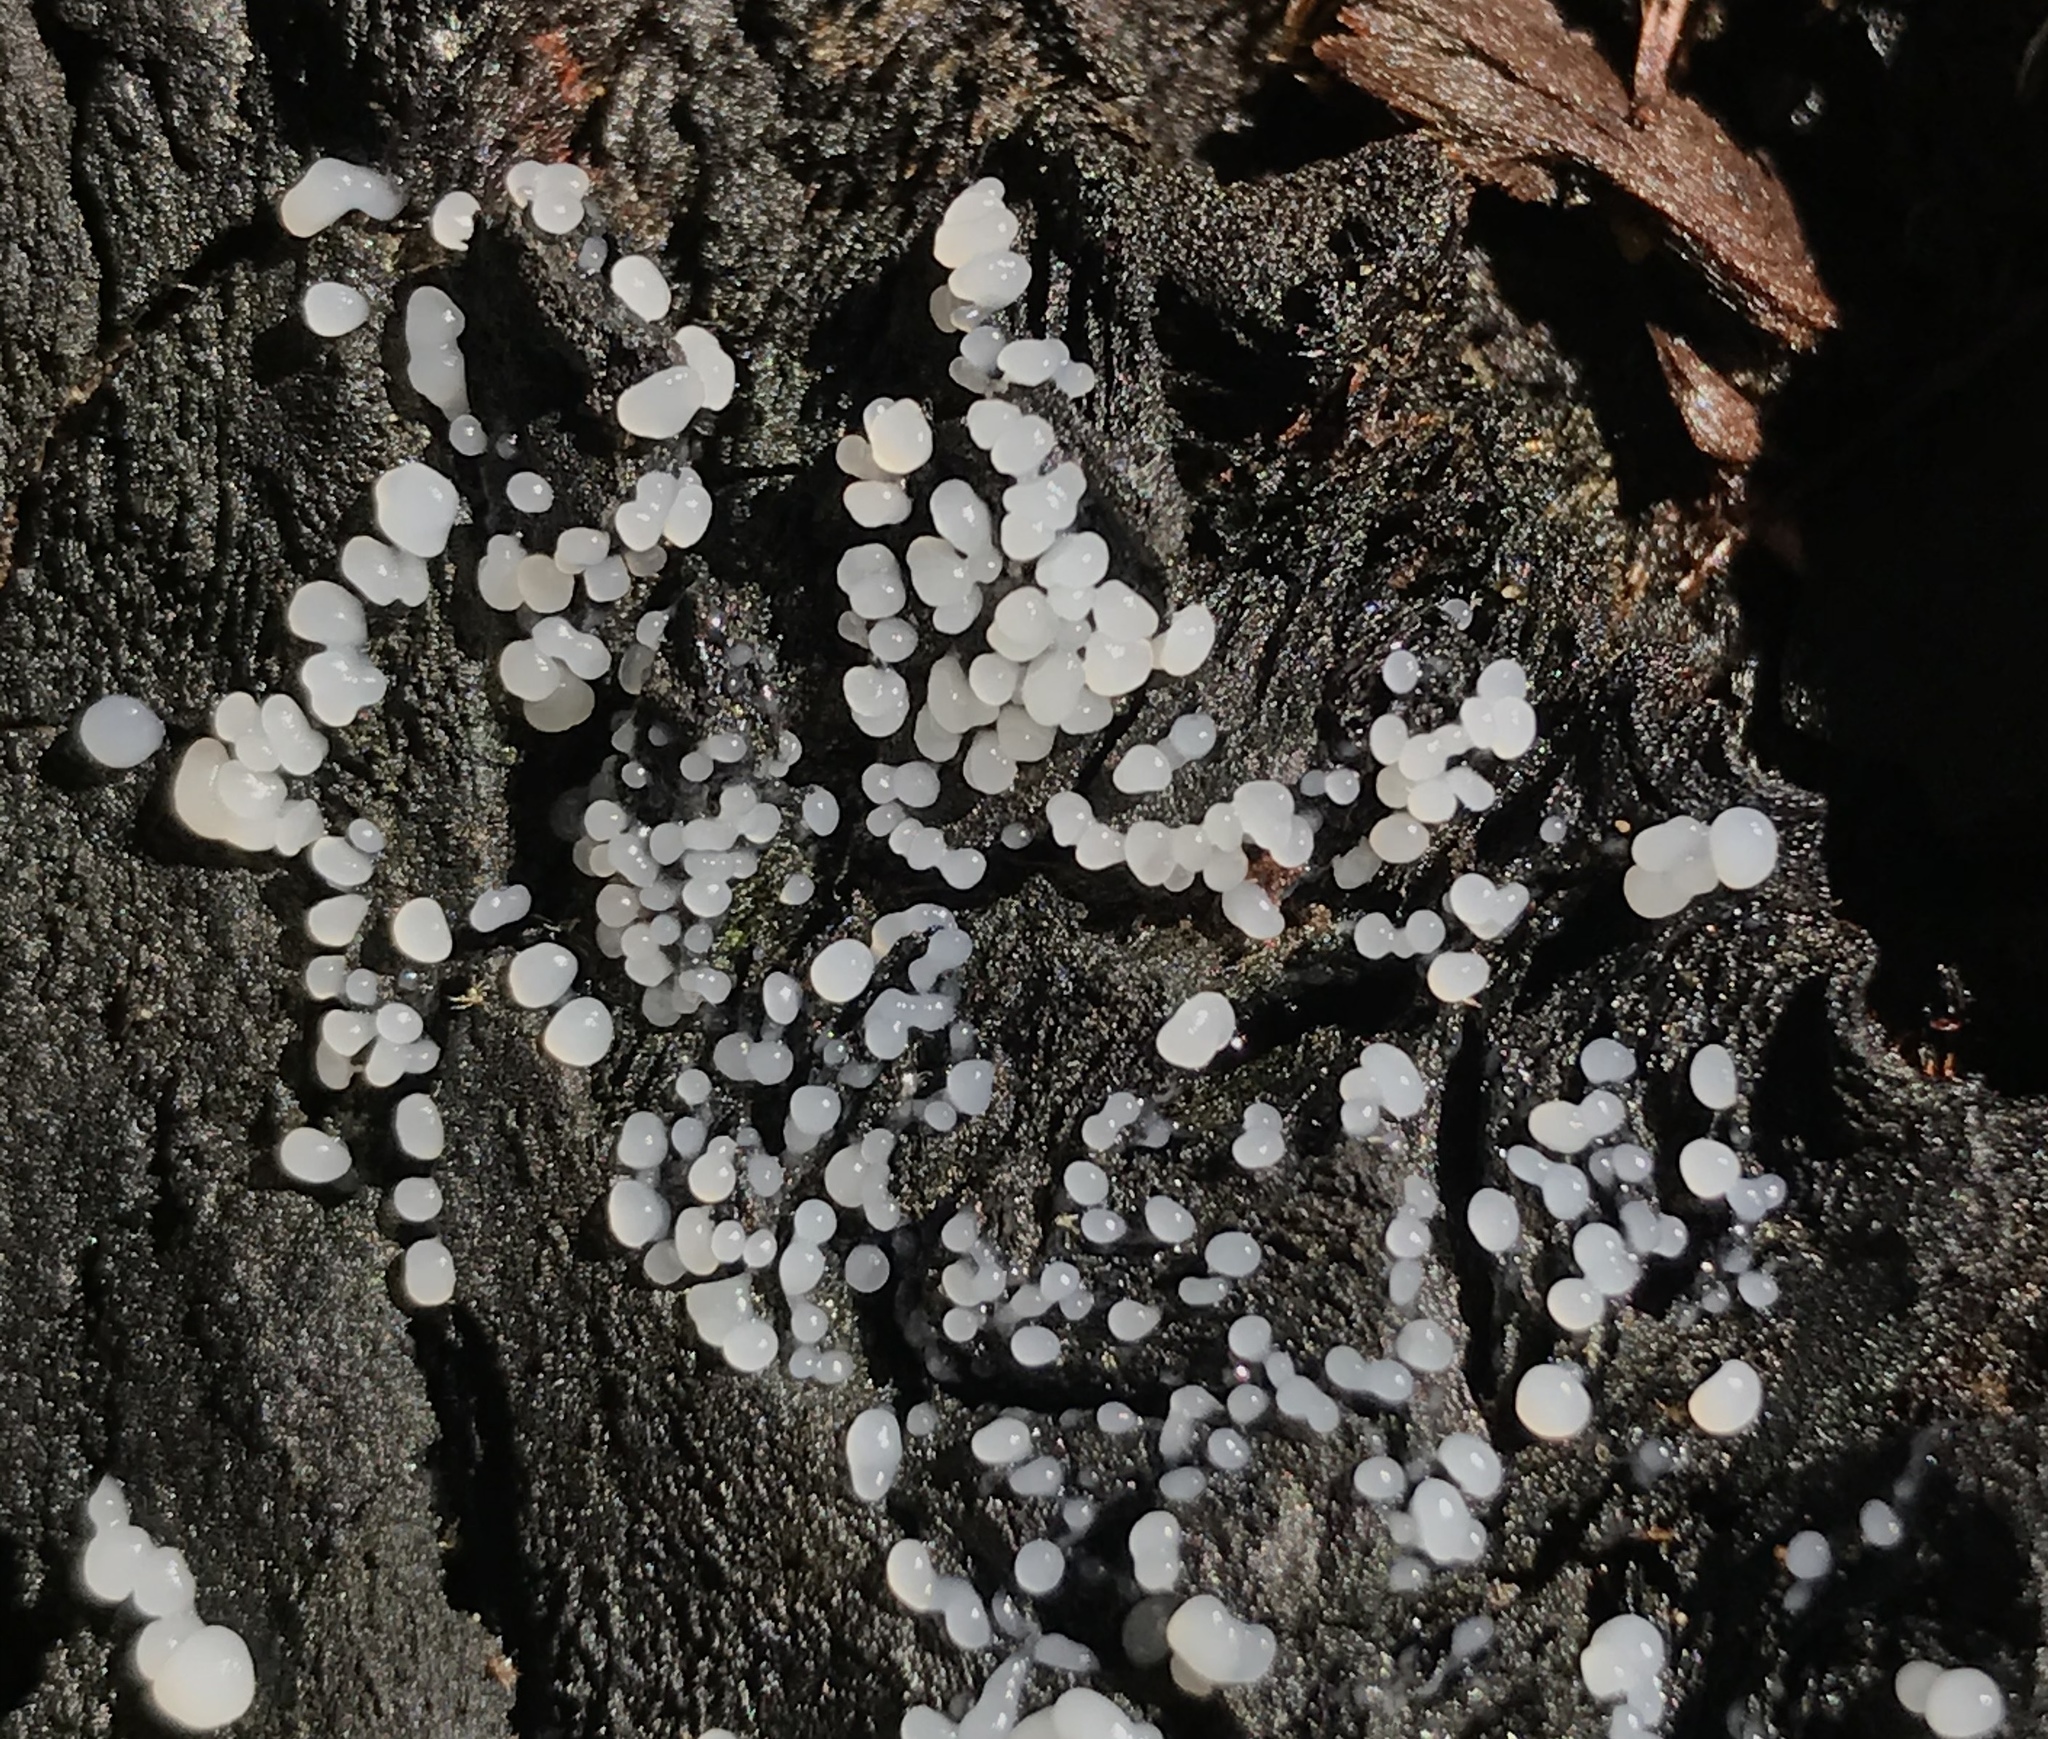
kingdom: Protozoa
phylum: Mycetozoa
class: Protosteliomycetes
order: Ceratiomyxales
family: Ceratiomyxaceae
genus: Ceratiomyxa
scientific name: Ceratiomyxa fruticulosa
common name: Honeycomb coral slime mold
